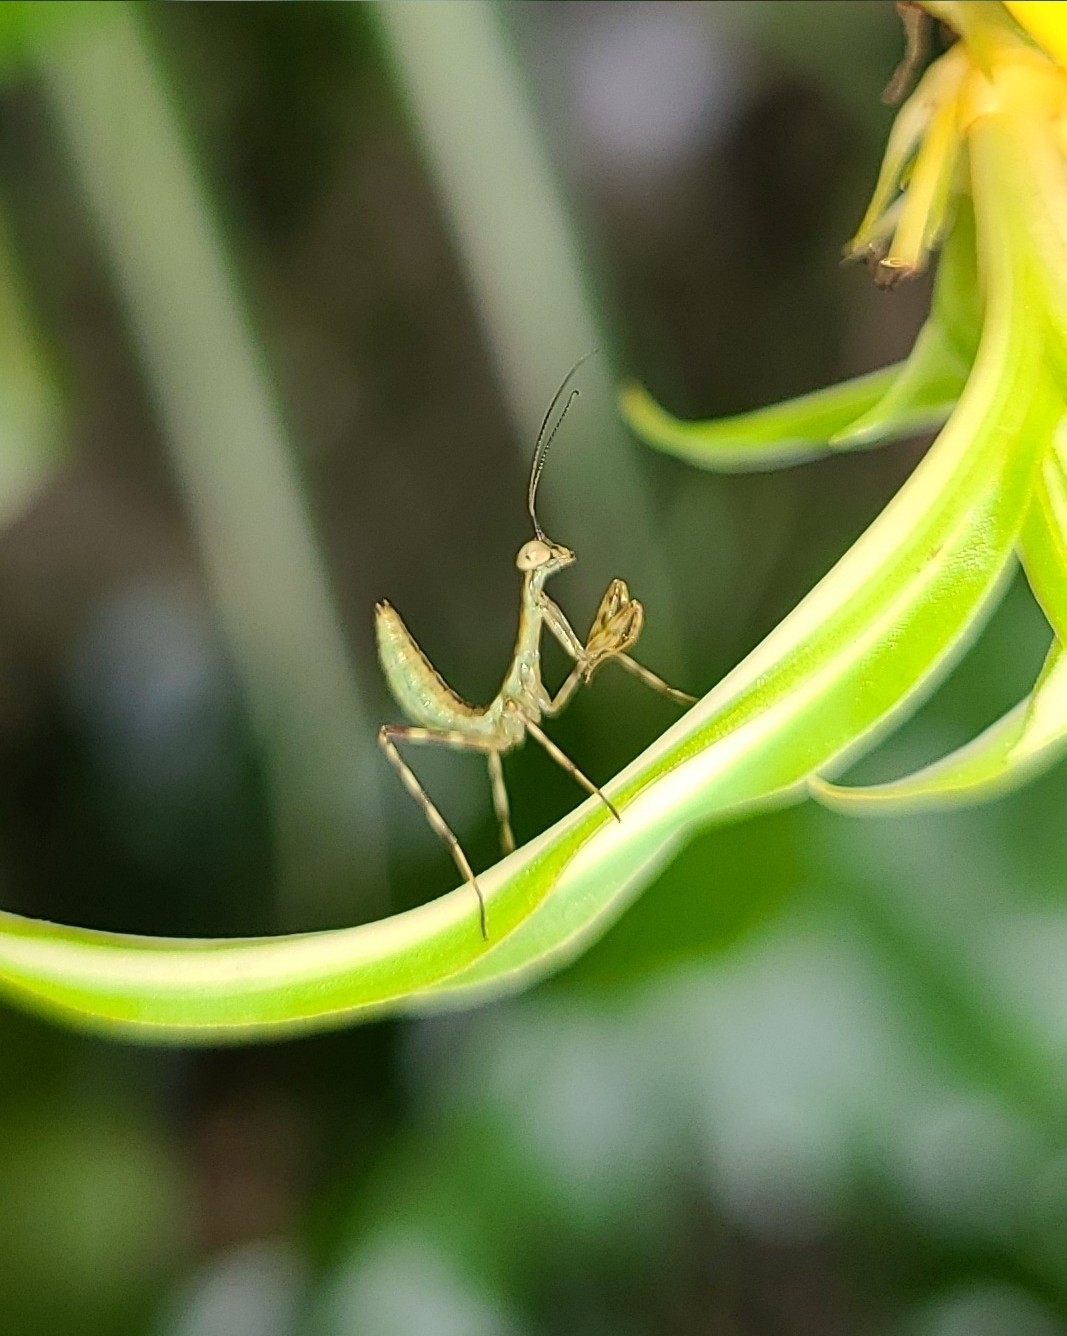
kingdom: Animalia
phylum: Arthropoda
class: Insecta
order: Mantodea
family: Miomantidae
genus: Miomantis
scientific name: Miomantis caffra
